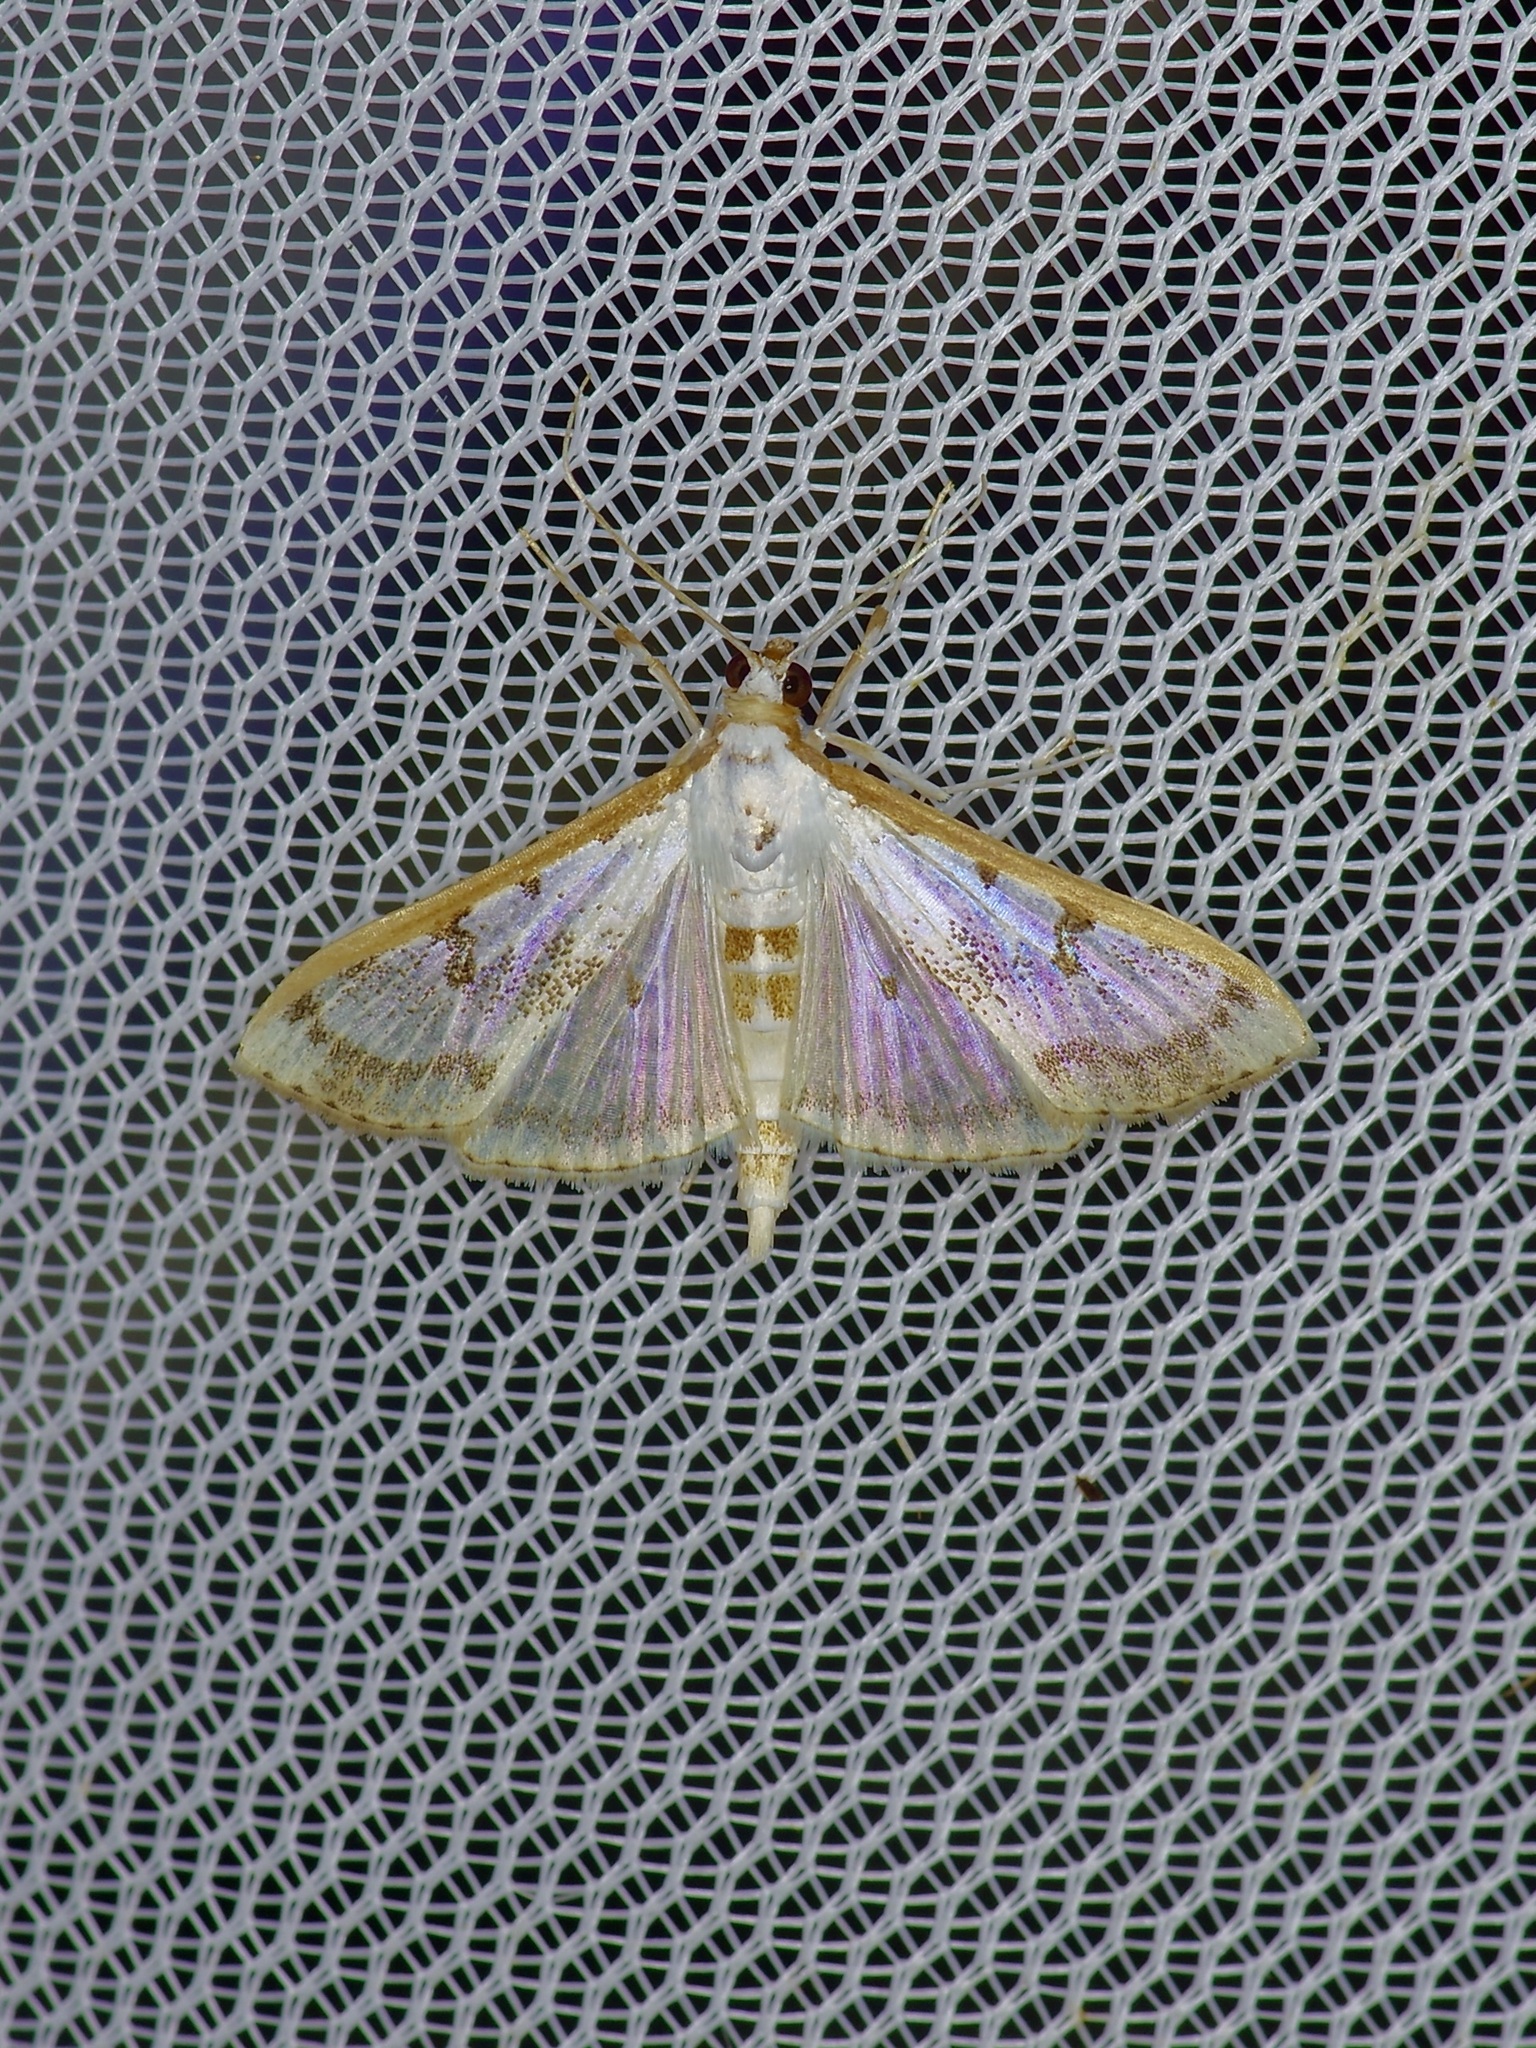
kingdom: Animalia
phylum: Arthropoda
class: Insecta
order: Lepidoptera
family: Crambidae
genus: Palpita
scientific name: Palpita gracilalis
